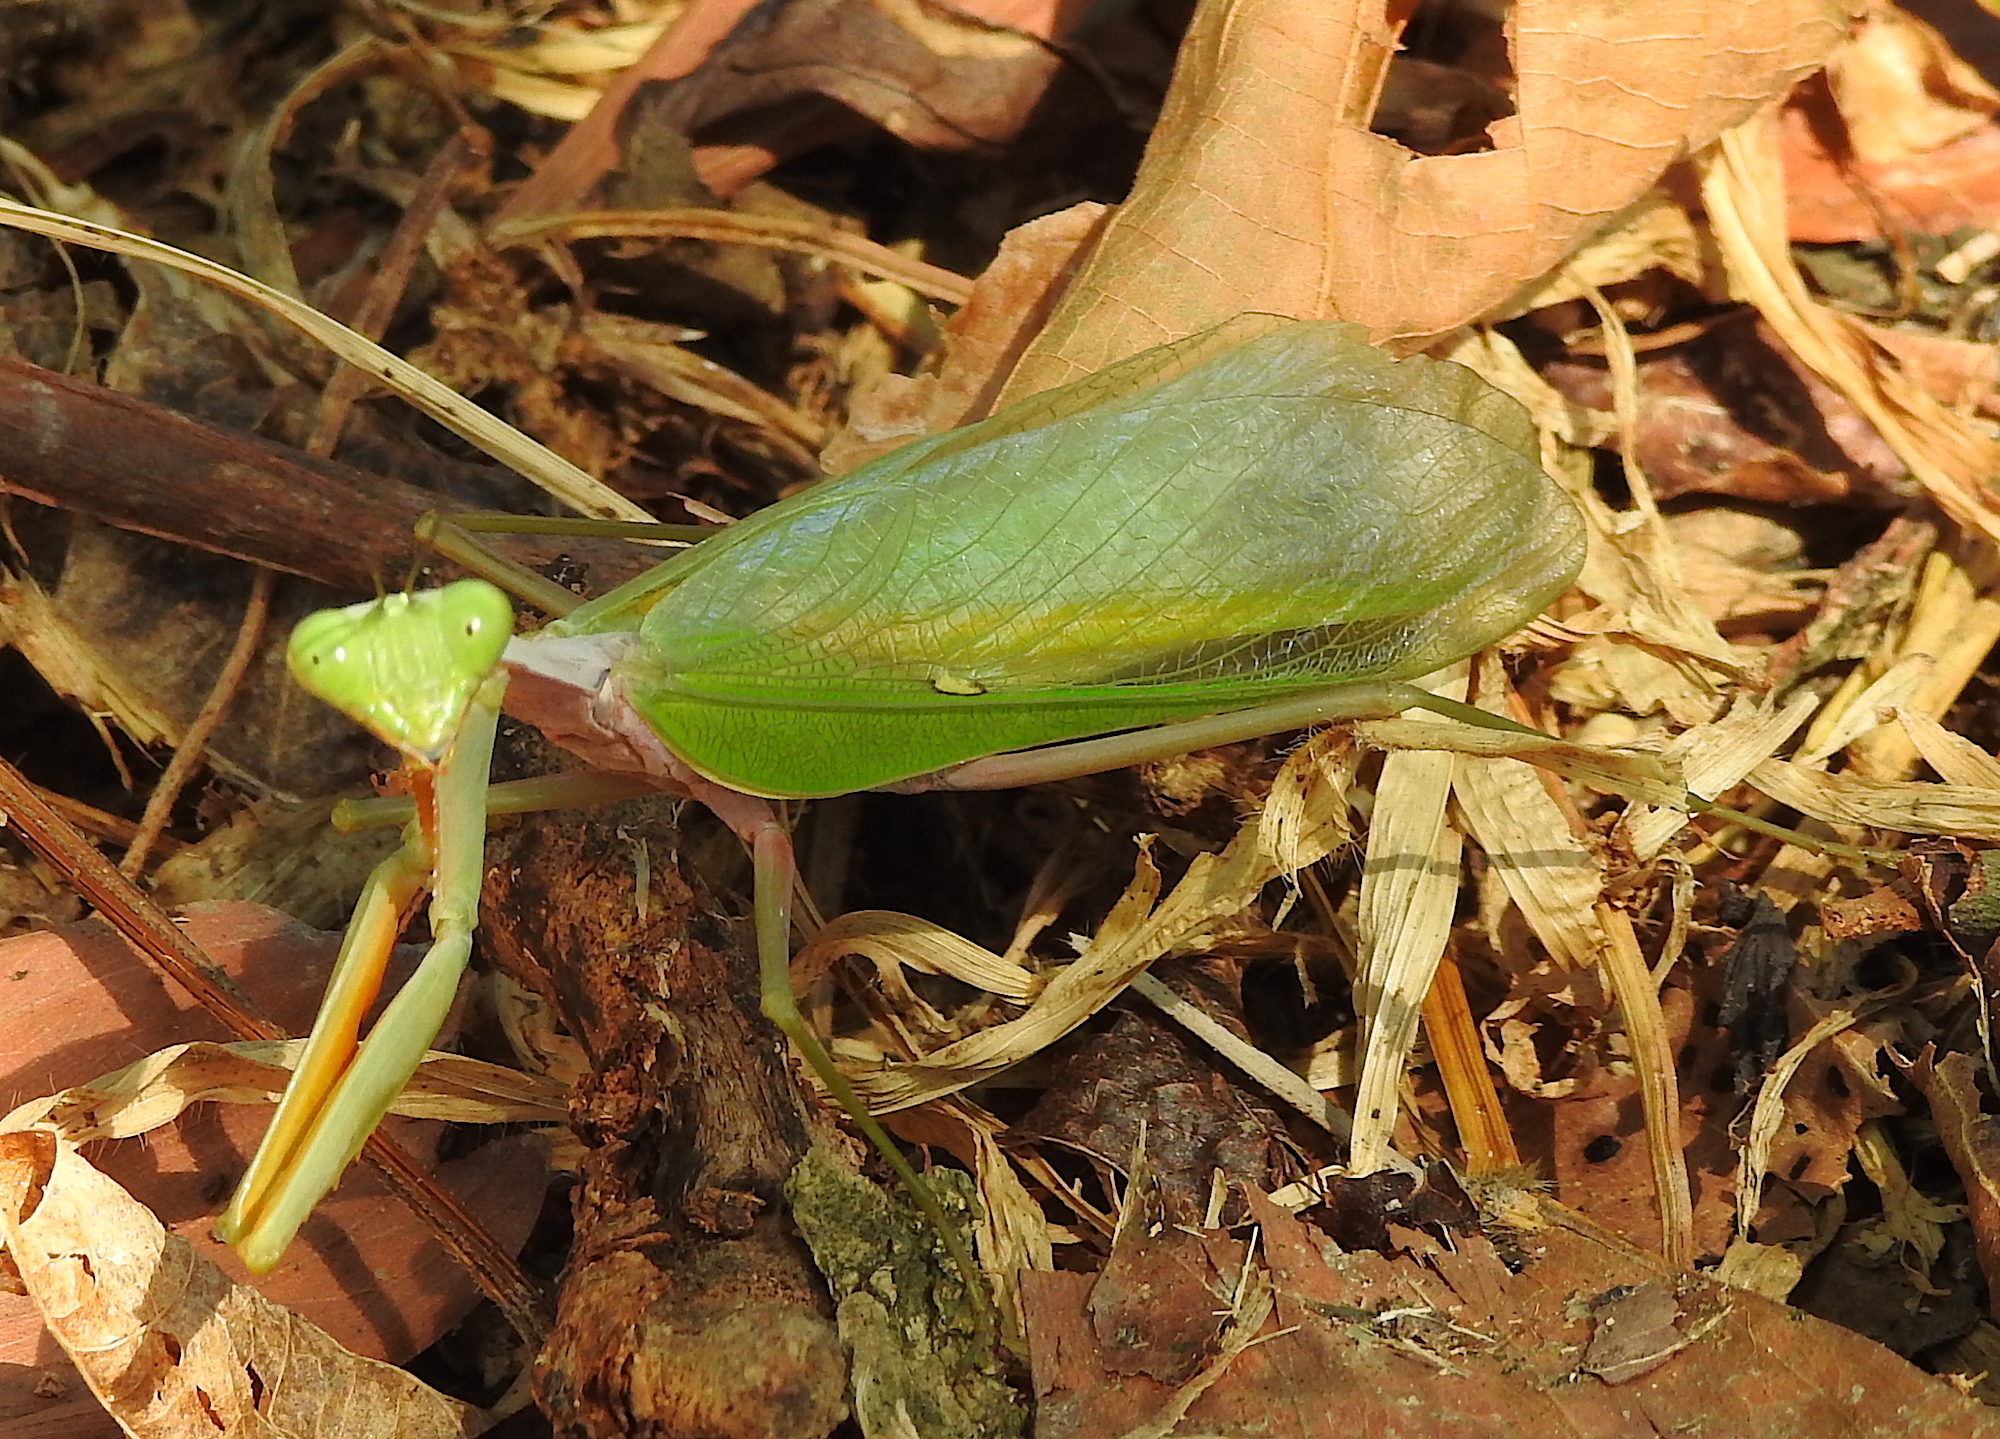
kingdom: Animalia
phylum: Arthropoda
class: Insecta
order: Mantodea
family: Mantidae
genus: Hierodula
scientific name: Hierodula venosa
